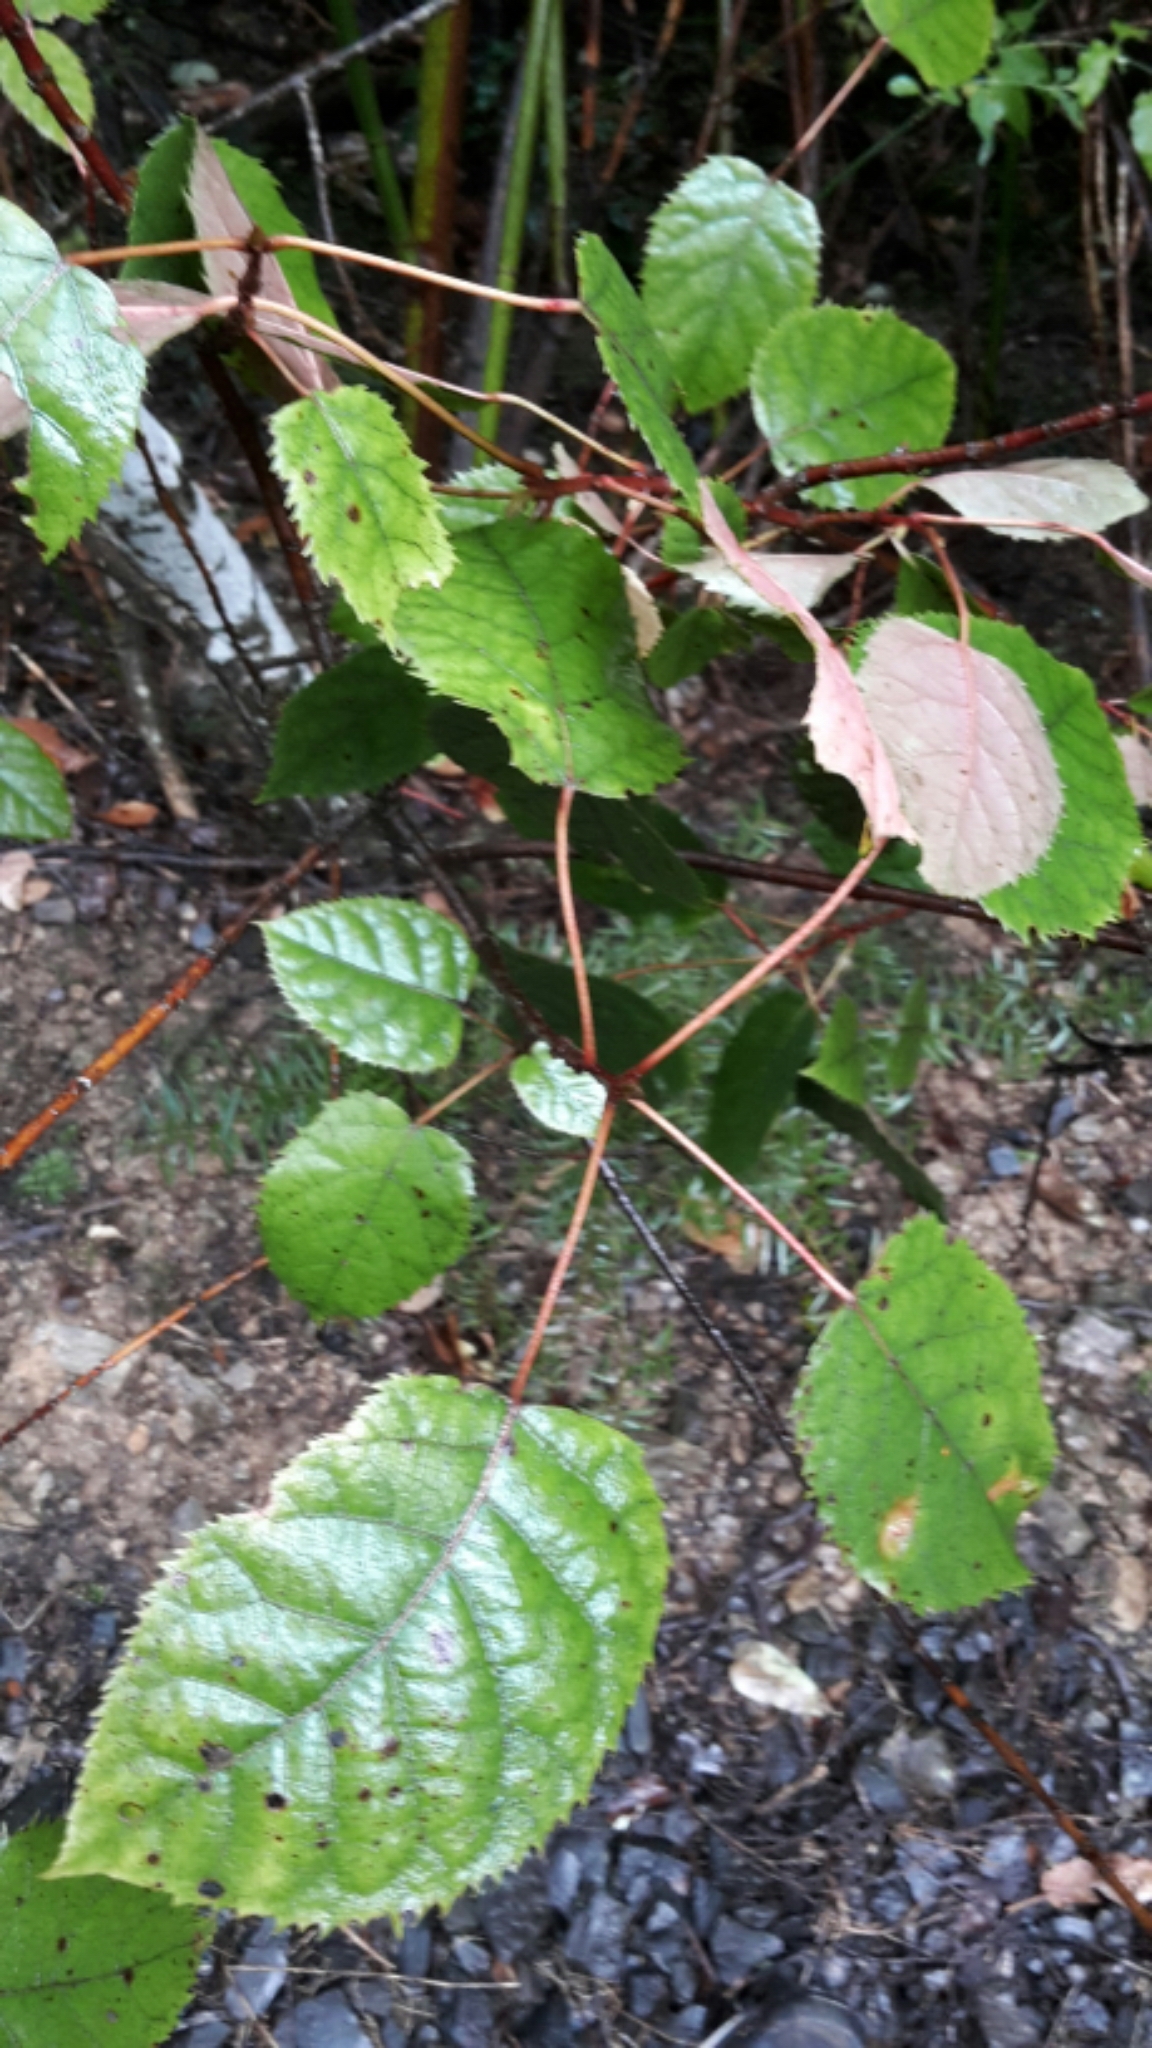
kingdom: Plantae
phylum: Tracheophyta
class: Magnoliopsida
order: Oxalidales
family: Elaeocarpaceae
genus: Aristotelia
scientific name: Aristotelia serrata
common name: New zealand wineberry
